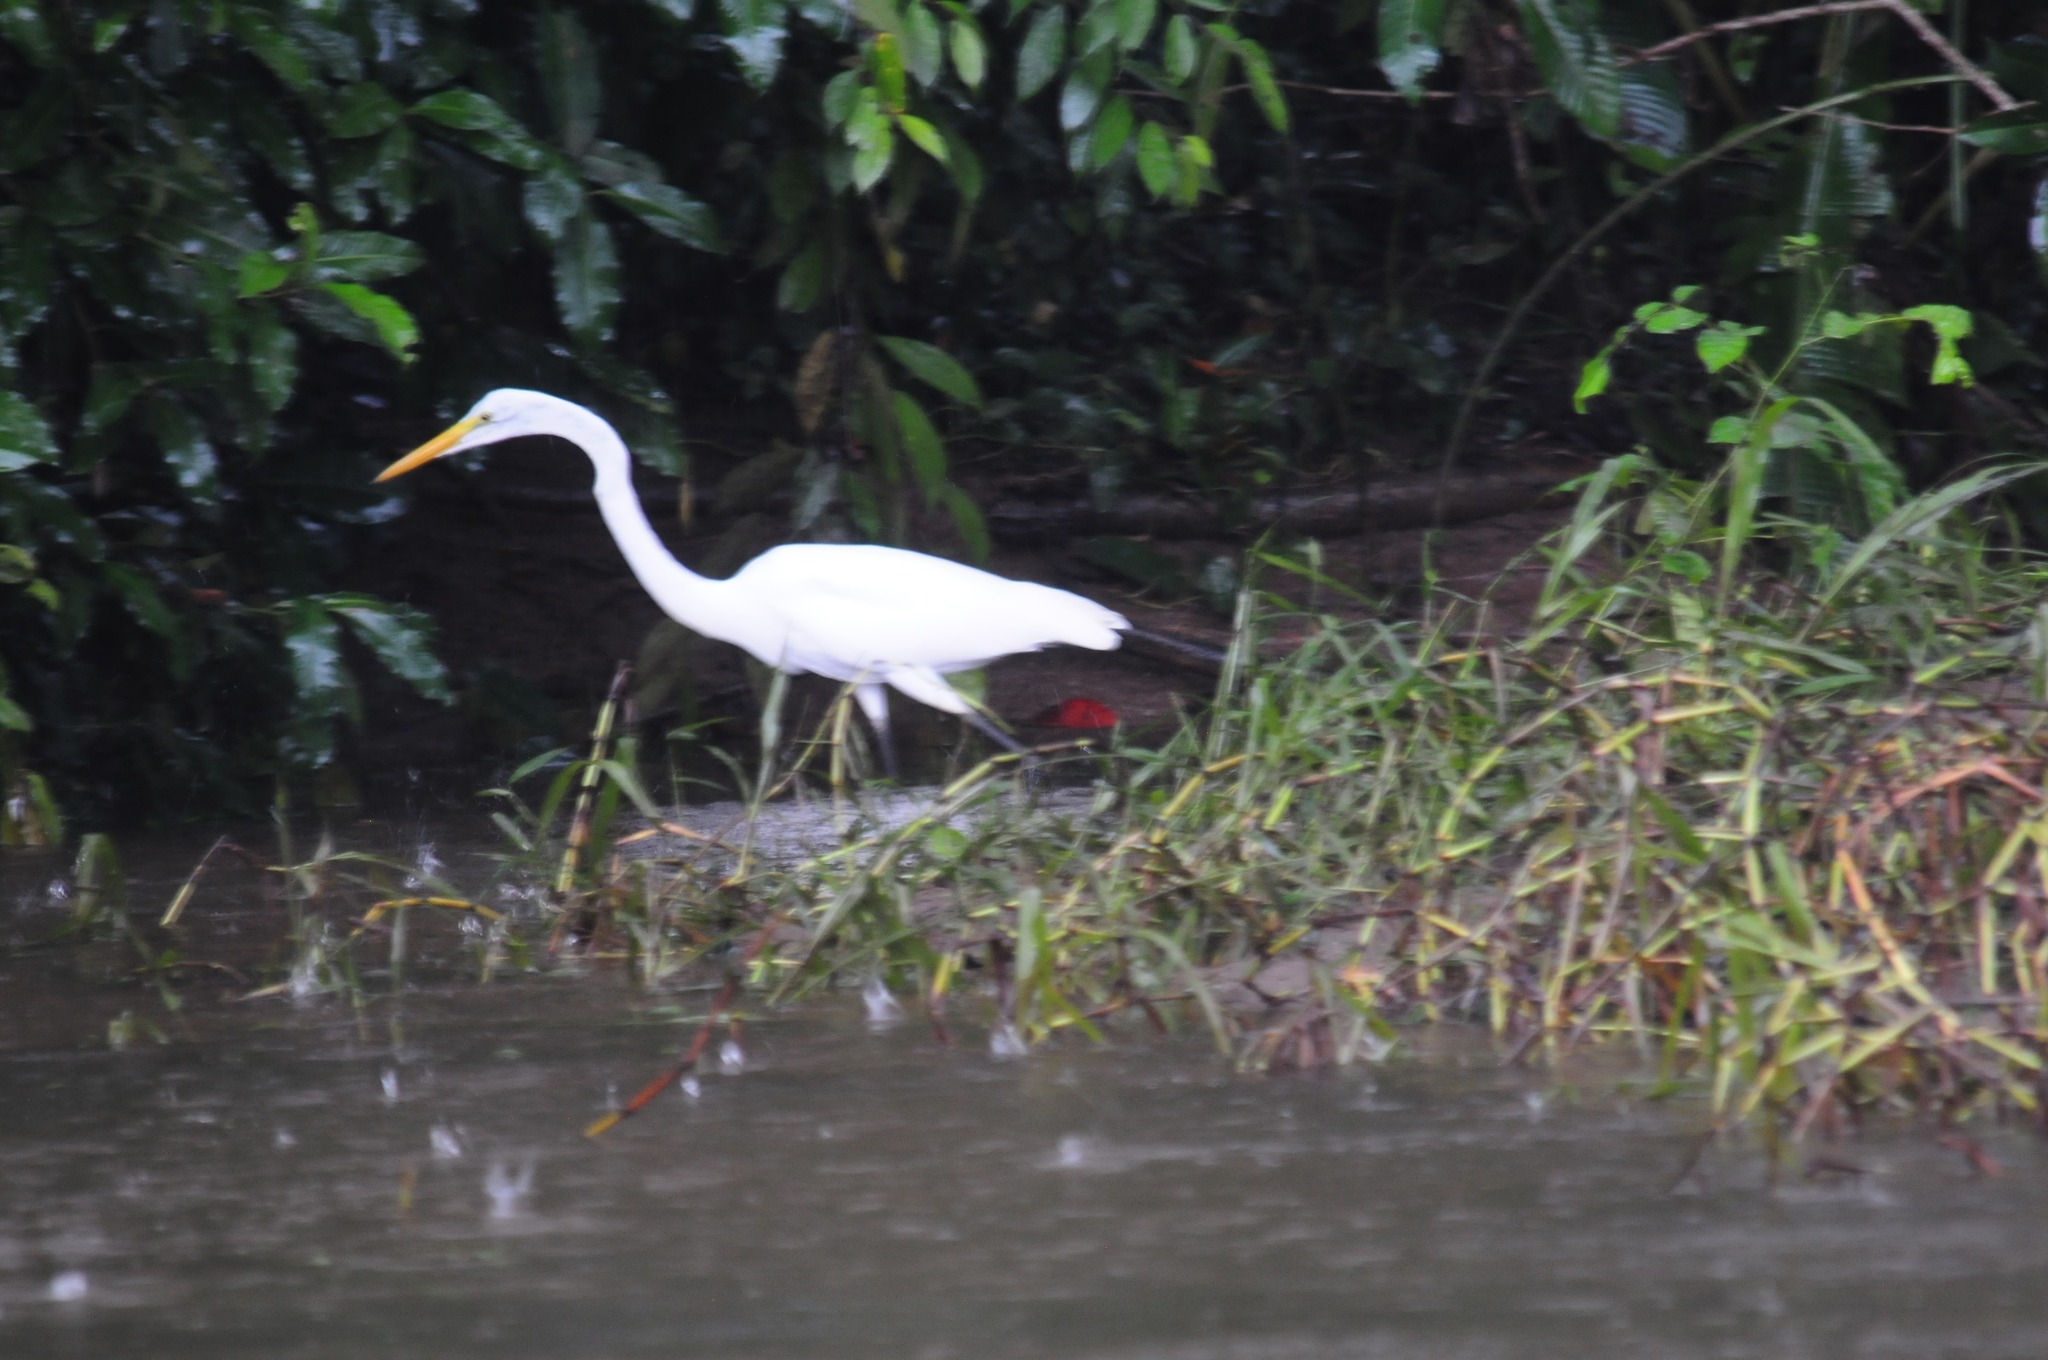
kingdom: Animalia
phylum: Chordata
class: Aves
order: Pelecaniformes
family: Ardeidae
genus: Ardea
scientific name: Ardea alba
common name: Great egret
